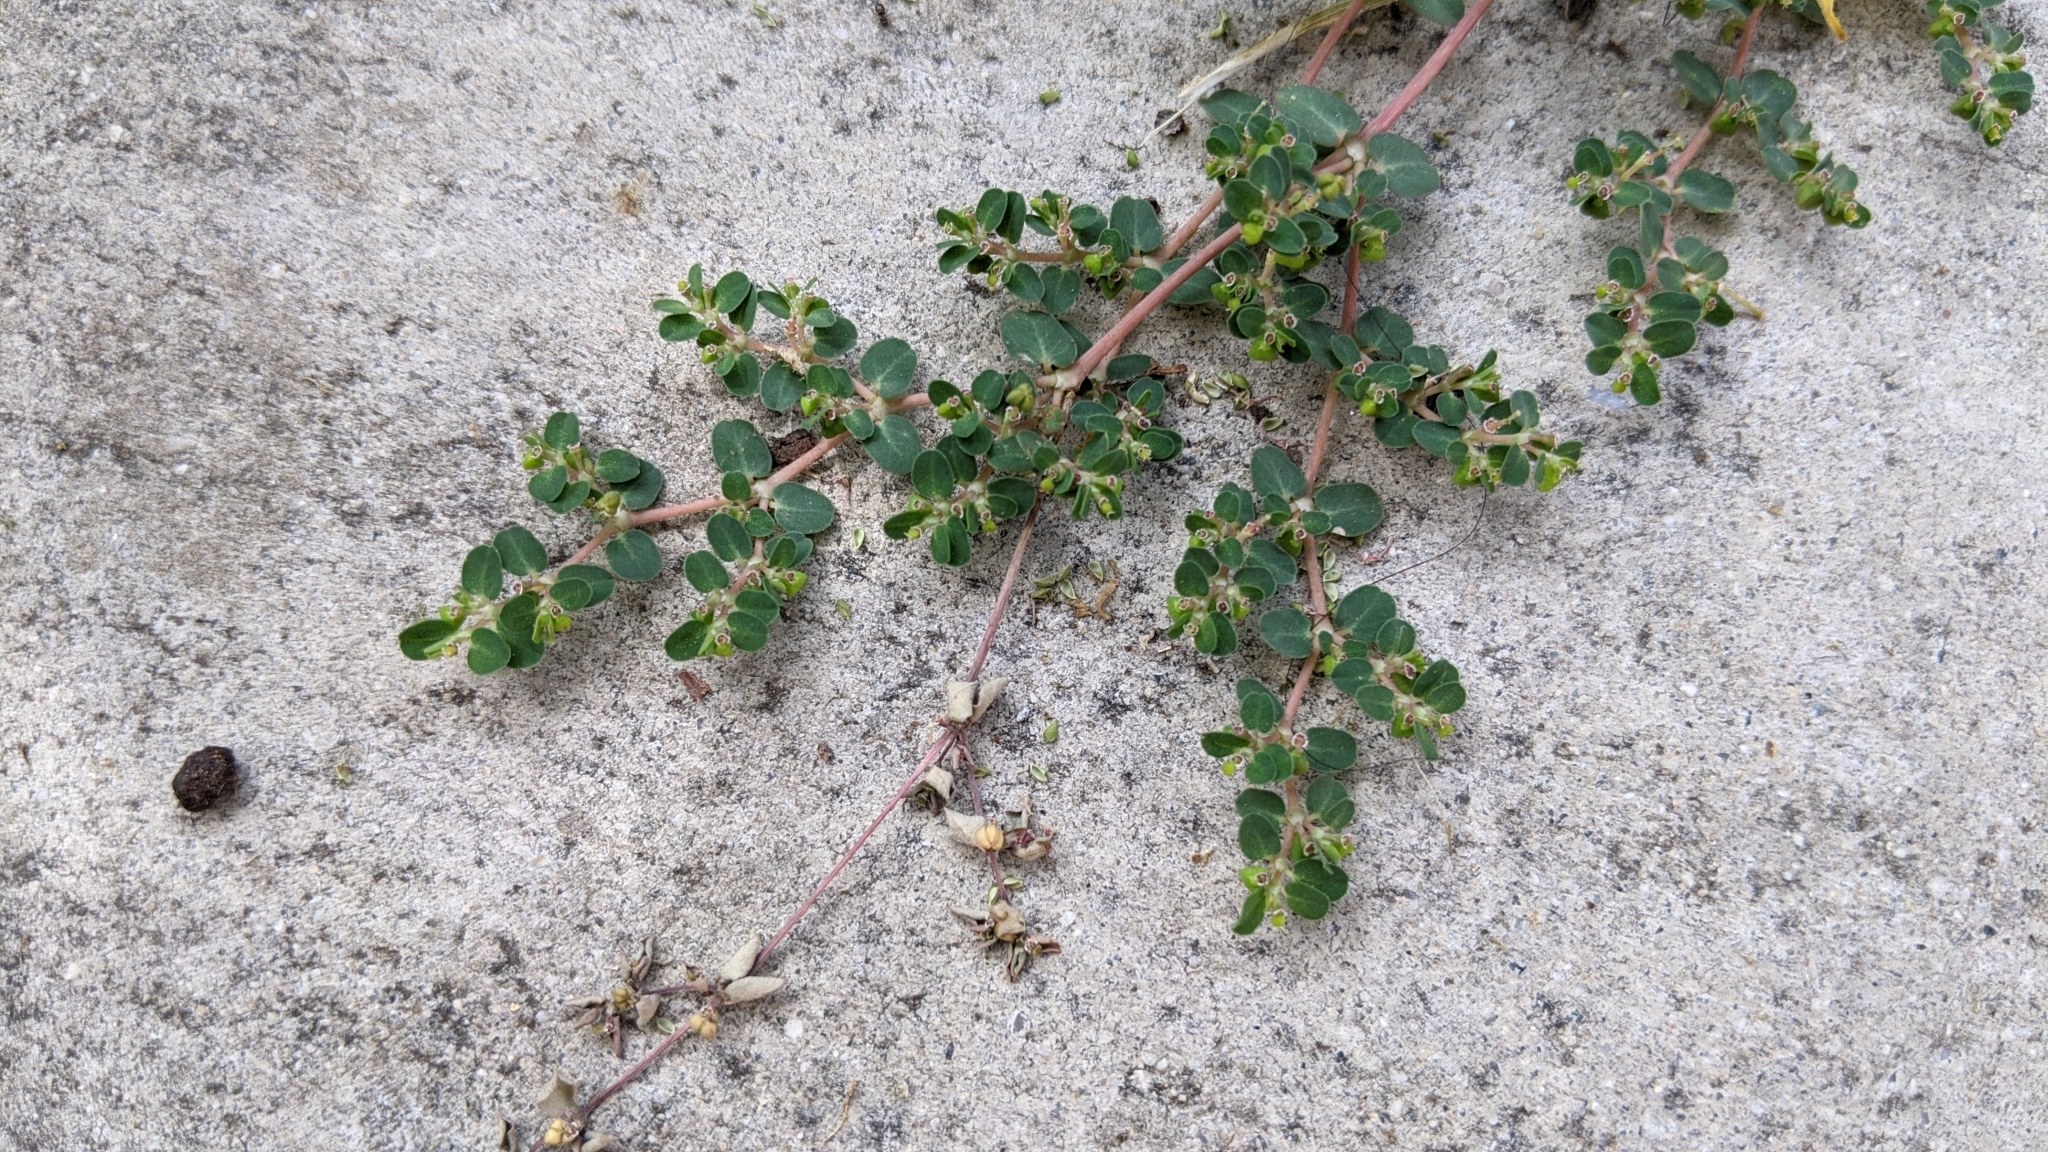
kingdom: Plantae
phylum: Tracheophyta
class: Magnoliopsida
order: Malpighiales
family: Euphorbiaceae
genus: Euphorbia
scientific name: Euphorbia serpens
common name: Matted sandmat
